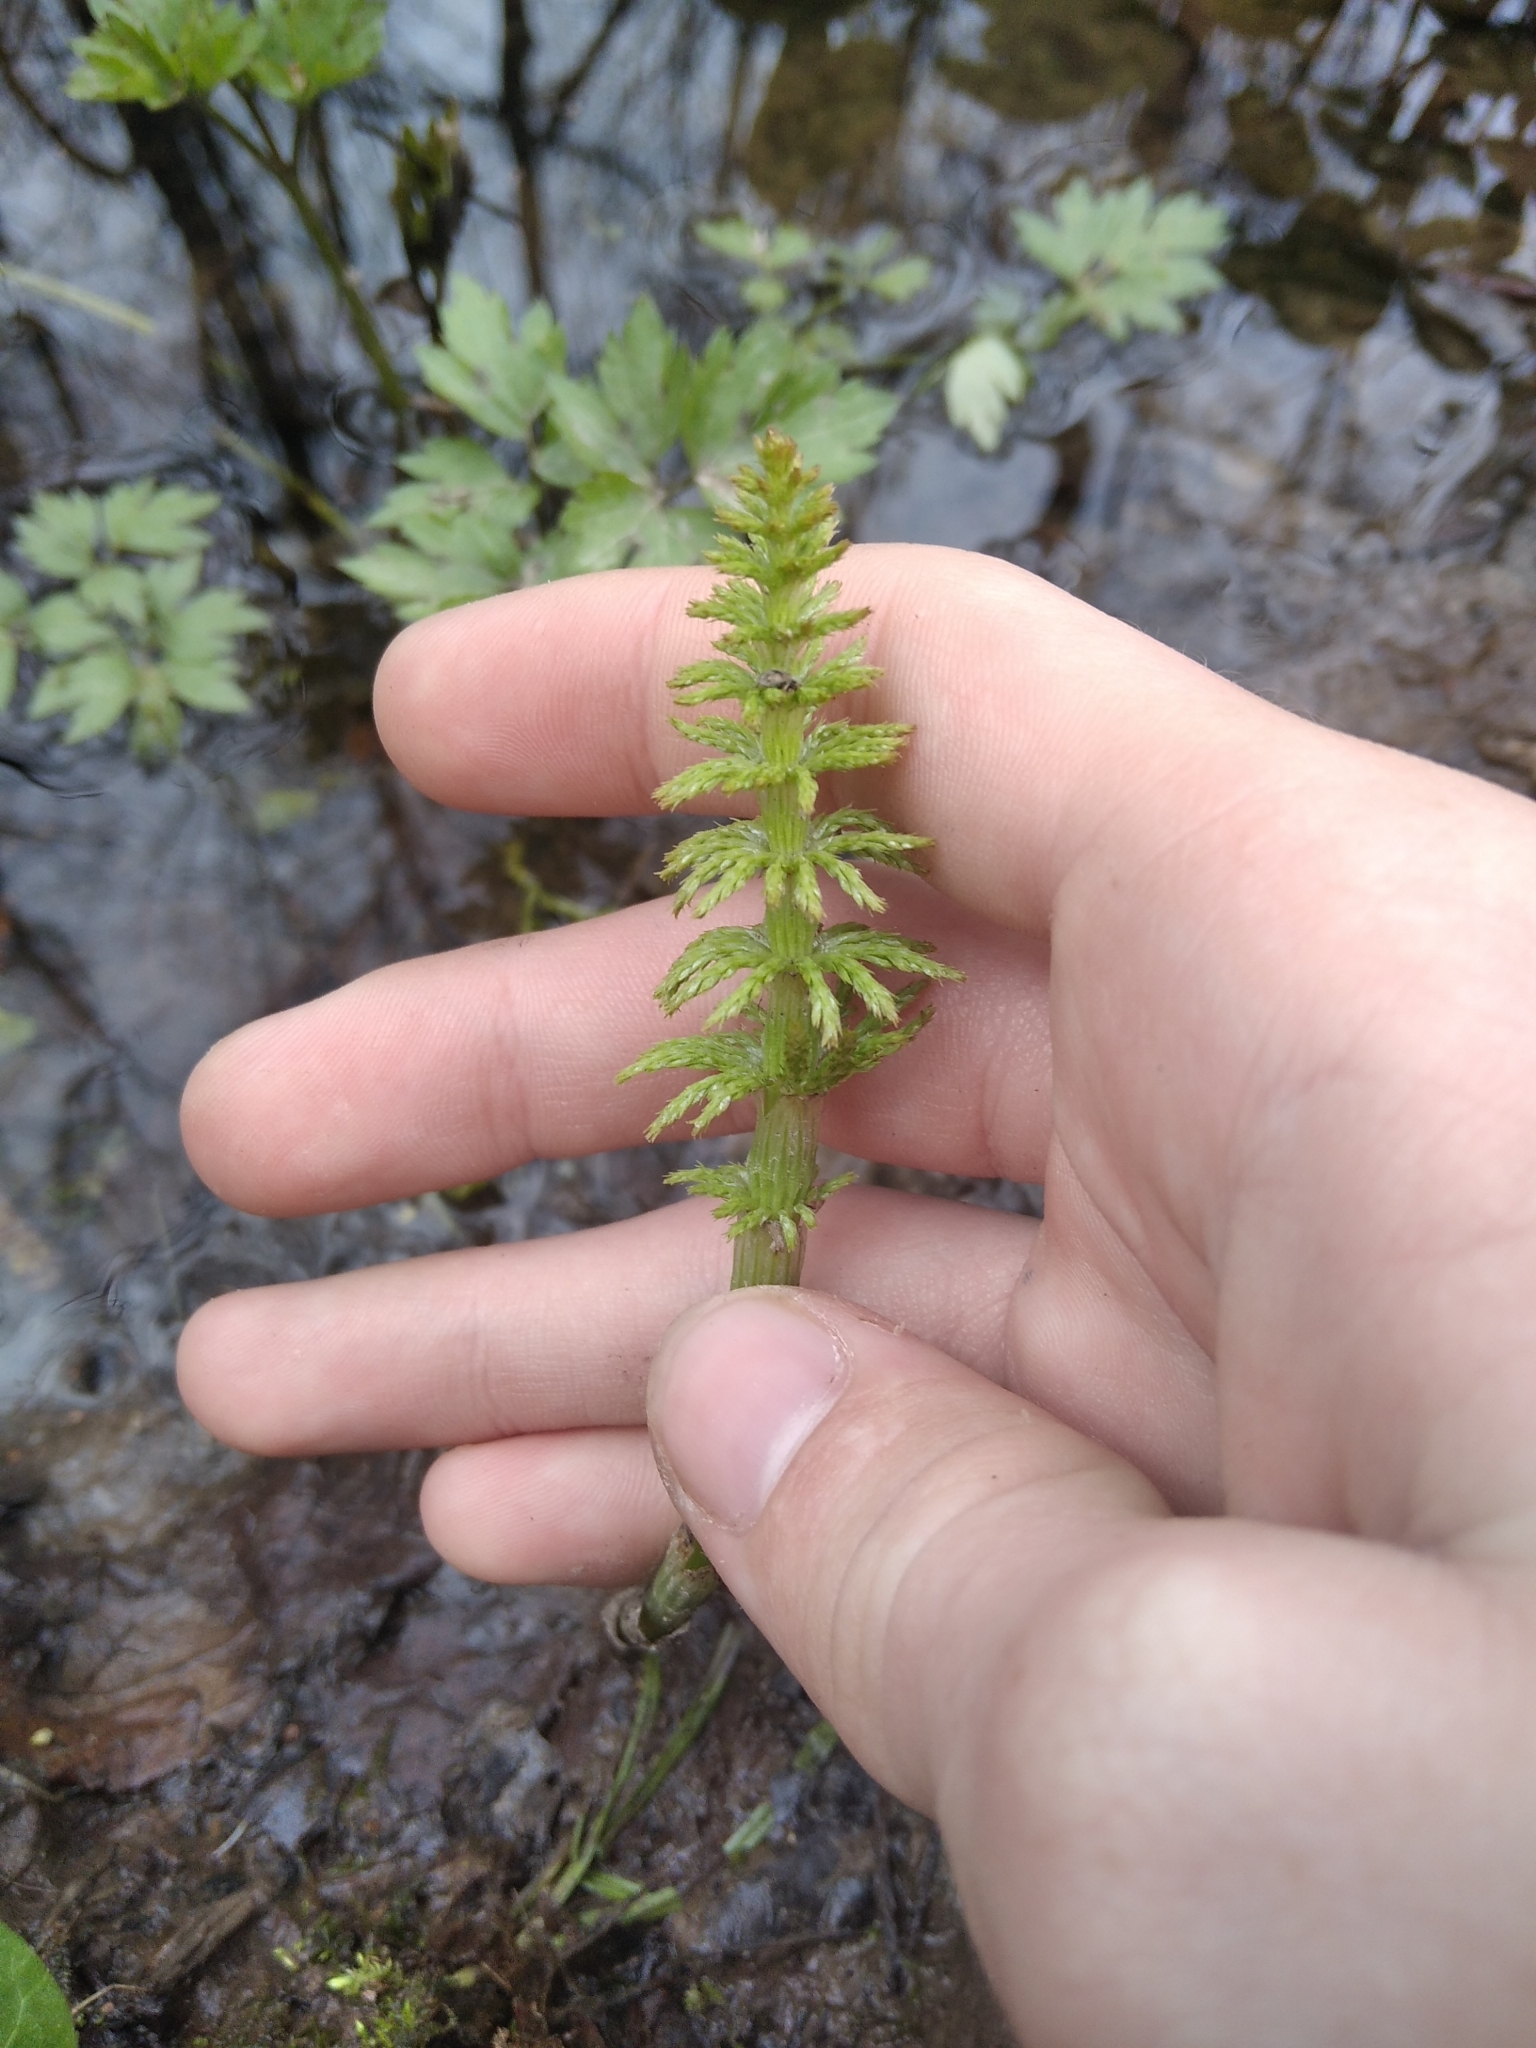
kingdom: Plantae
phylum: Tracheophyta
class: Polypodiopsida
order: Equisetales
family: Equisetaceae
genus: Equisetum
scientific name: Equisetum sylvaticum
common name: Wood horsetail
